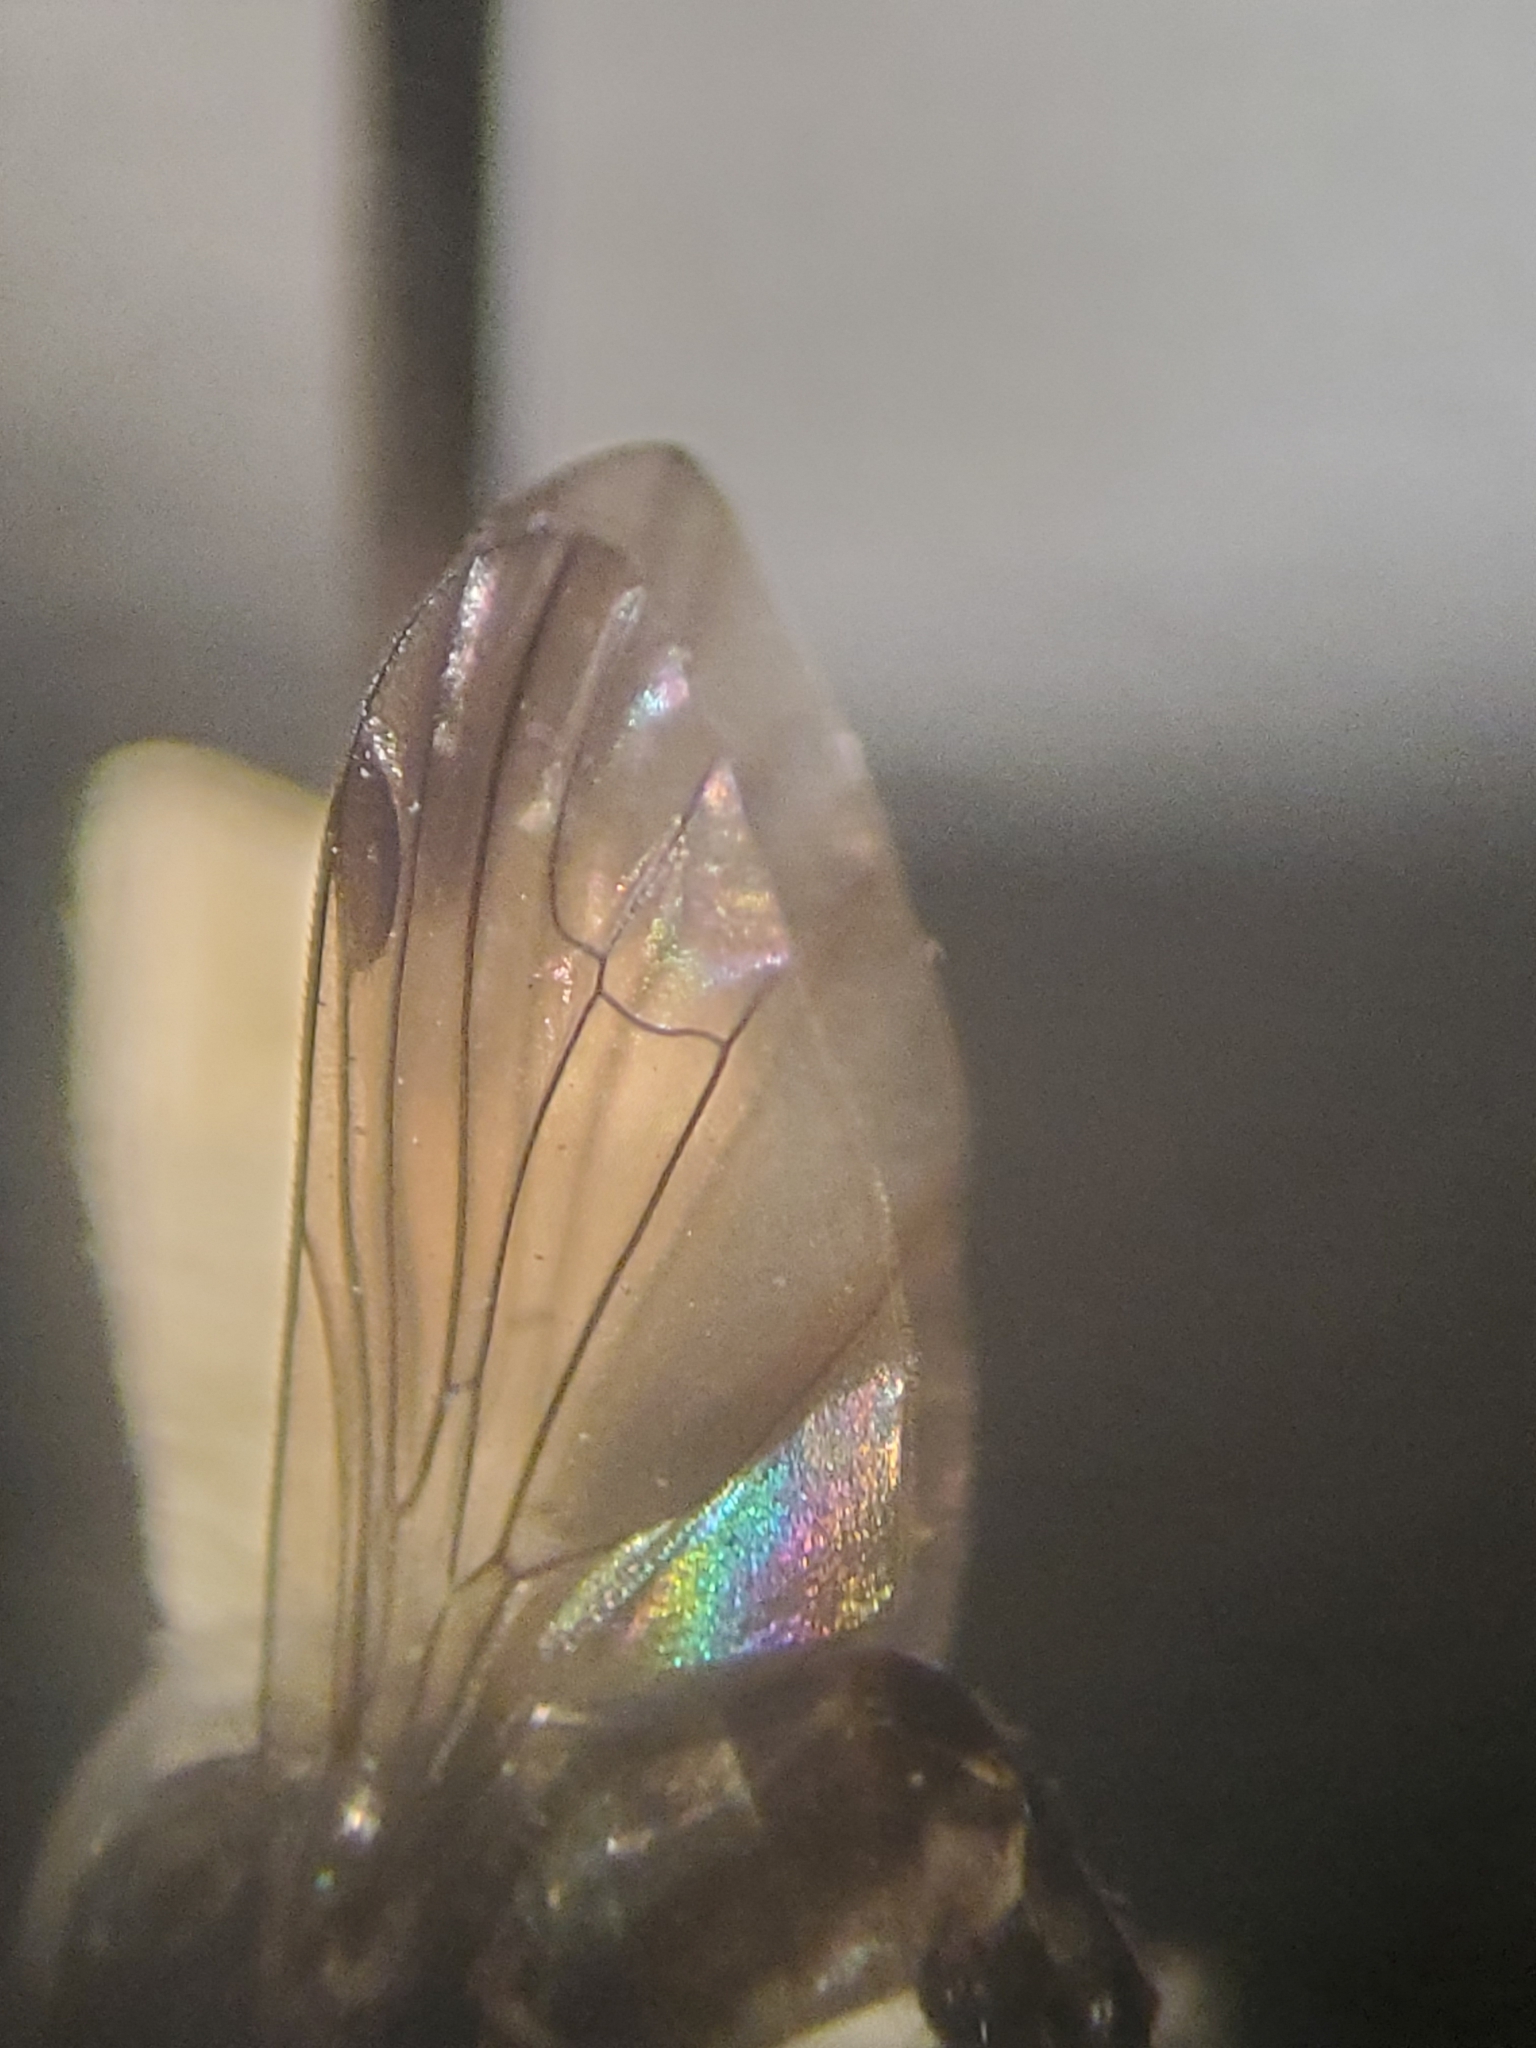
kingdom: Animalia
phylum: Arthropoda
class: Insecta
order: Diptera
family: Platypezidae
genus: Grossoseta
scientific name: Grossoseta pacifica
